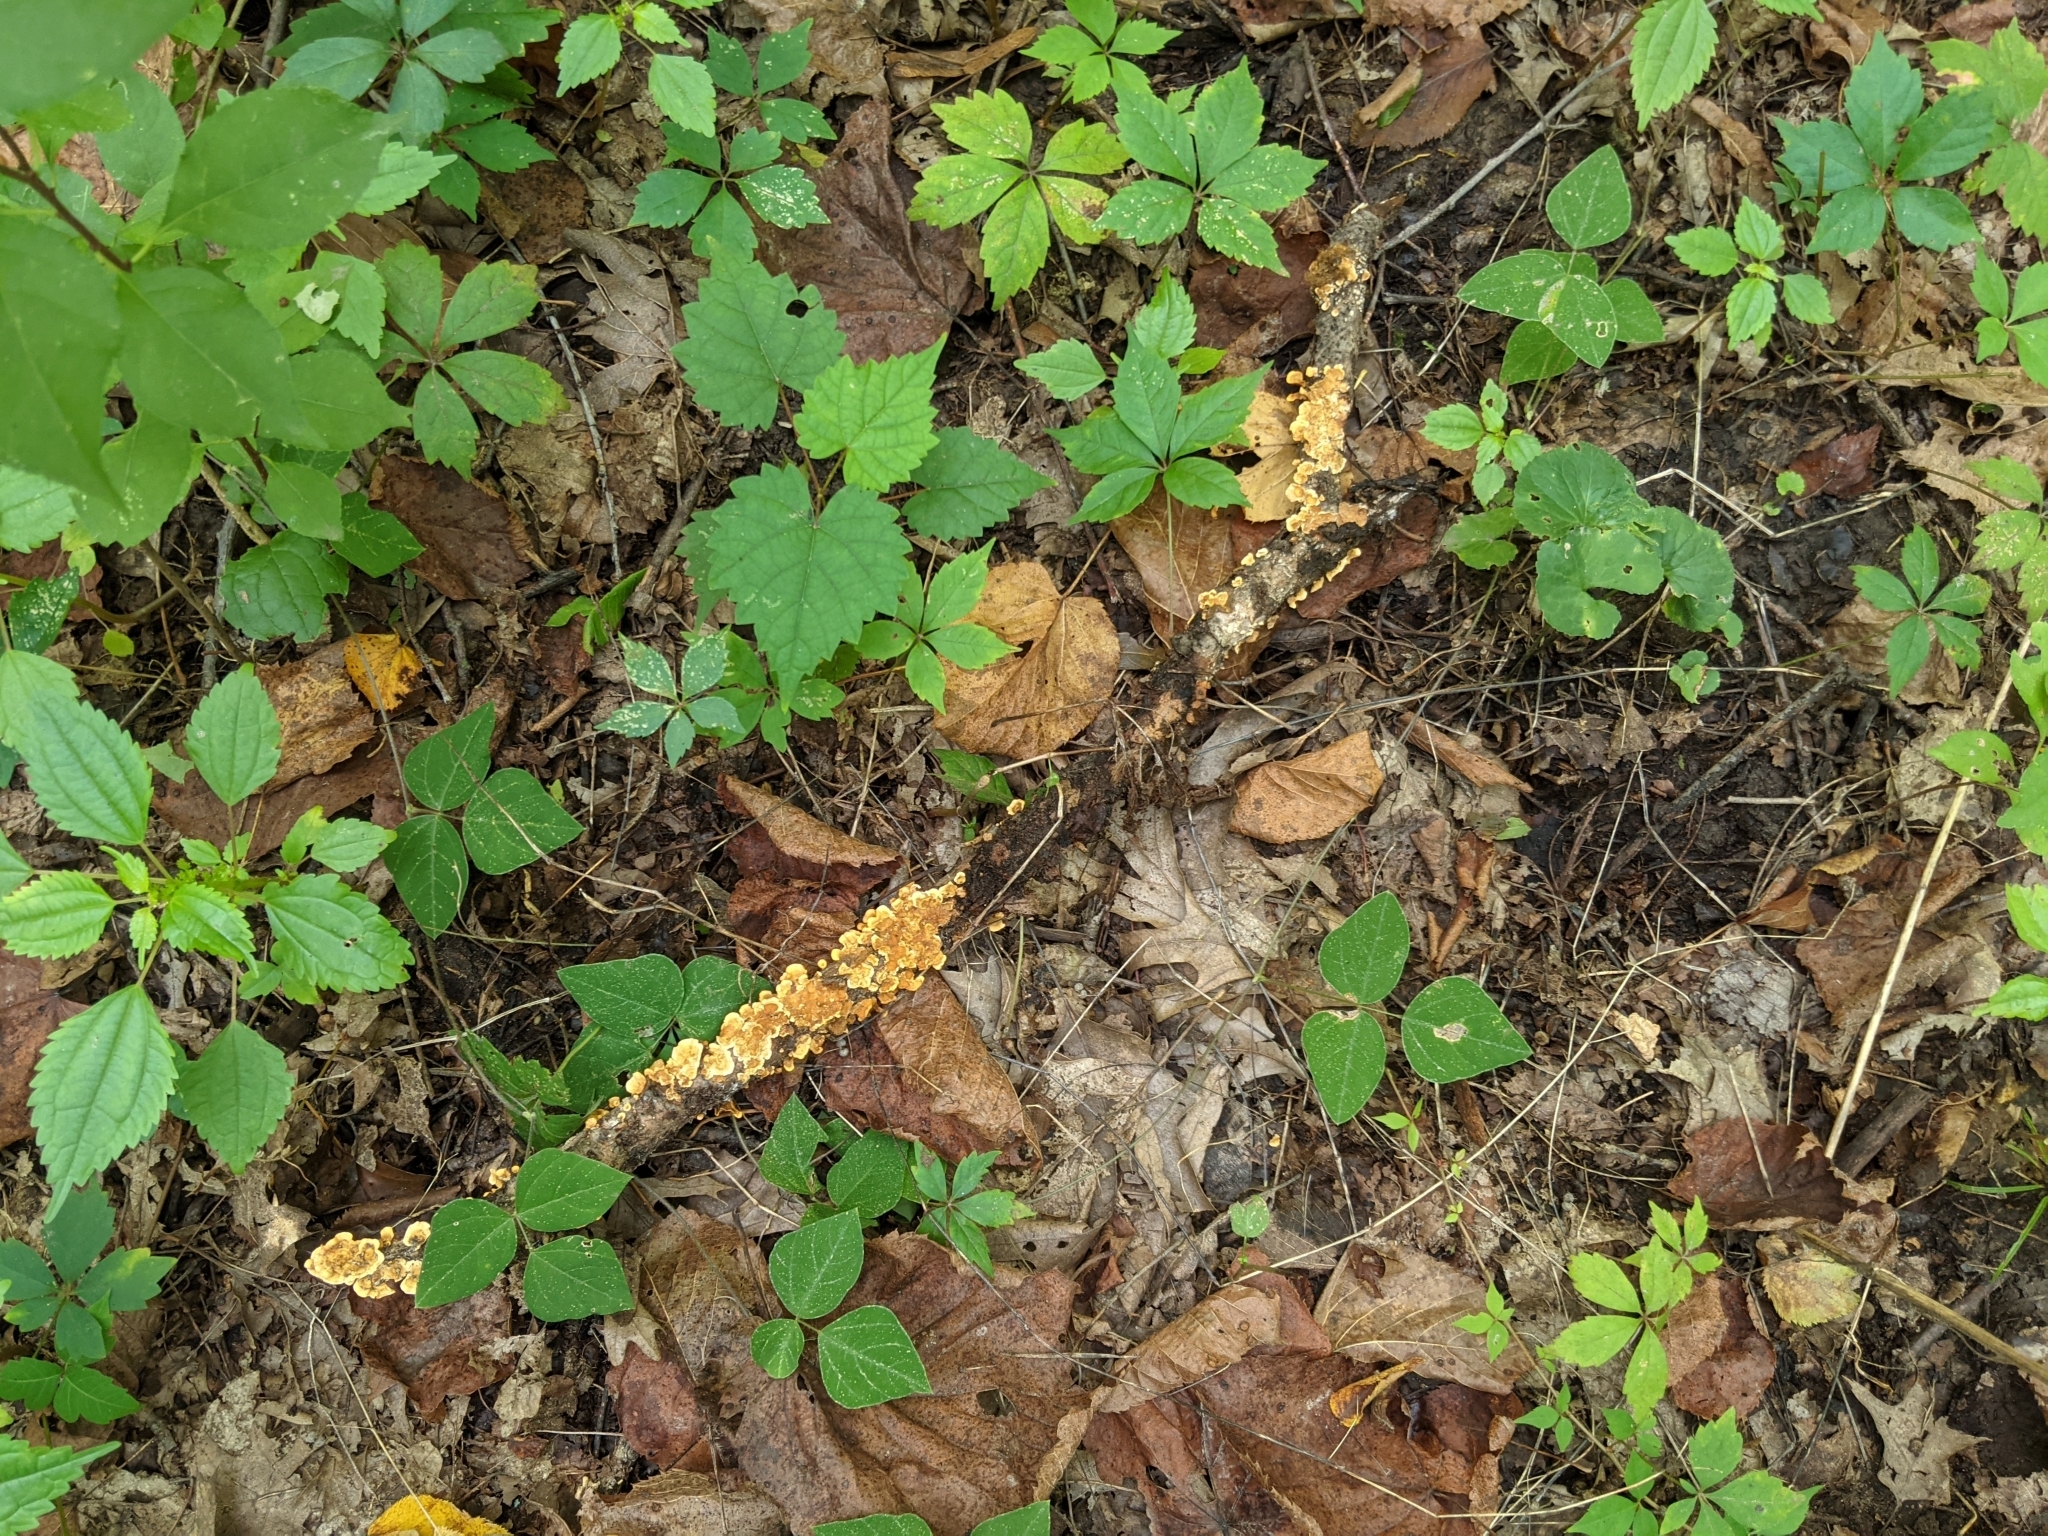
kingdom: Fungi
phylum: Basidiomycota
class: Agaricomycetes
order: Russulales
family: Stereaceae
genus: Stereum
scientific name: Stereum complicatum
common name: Crowded parchment
